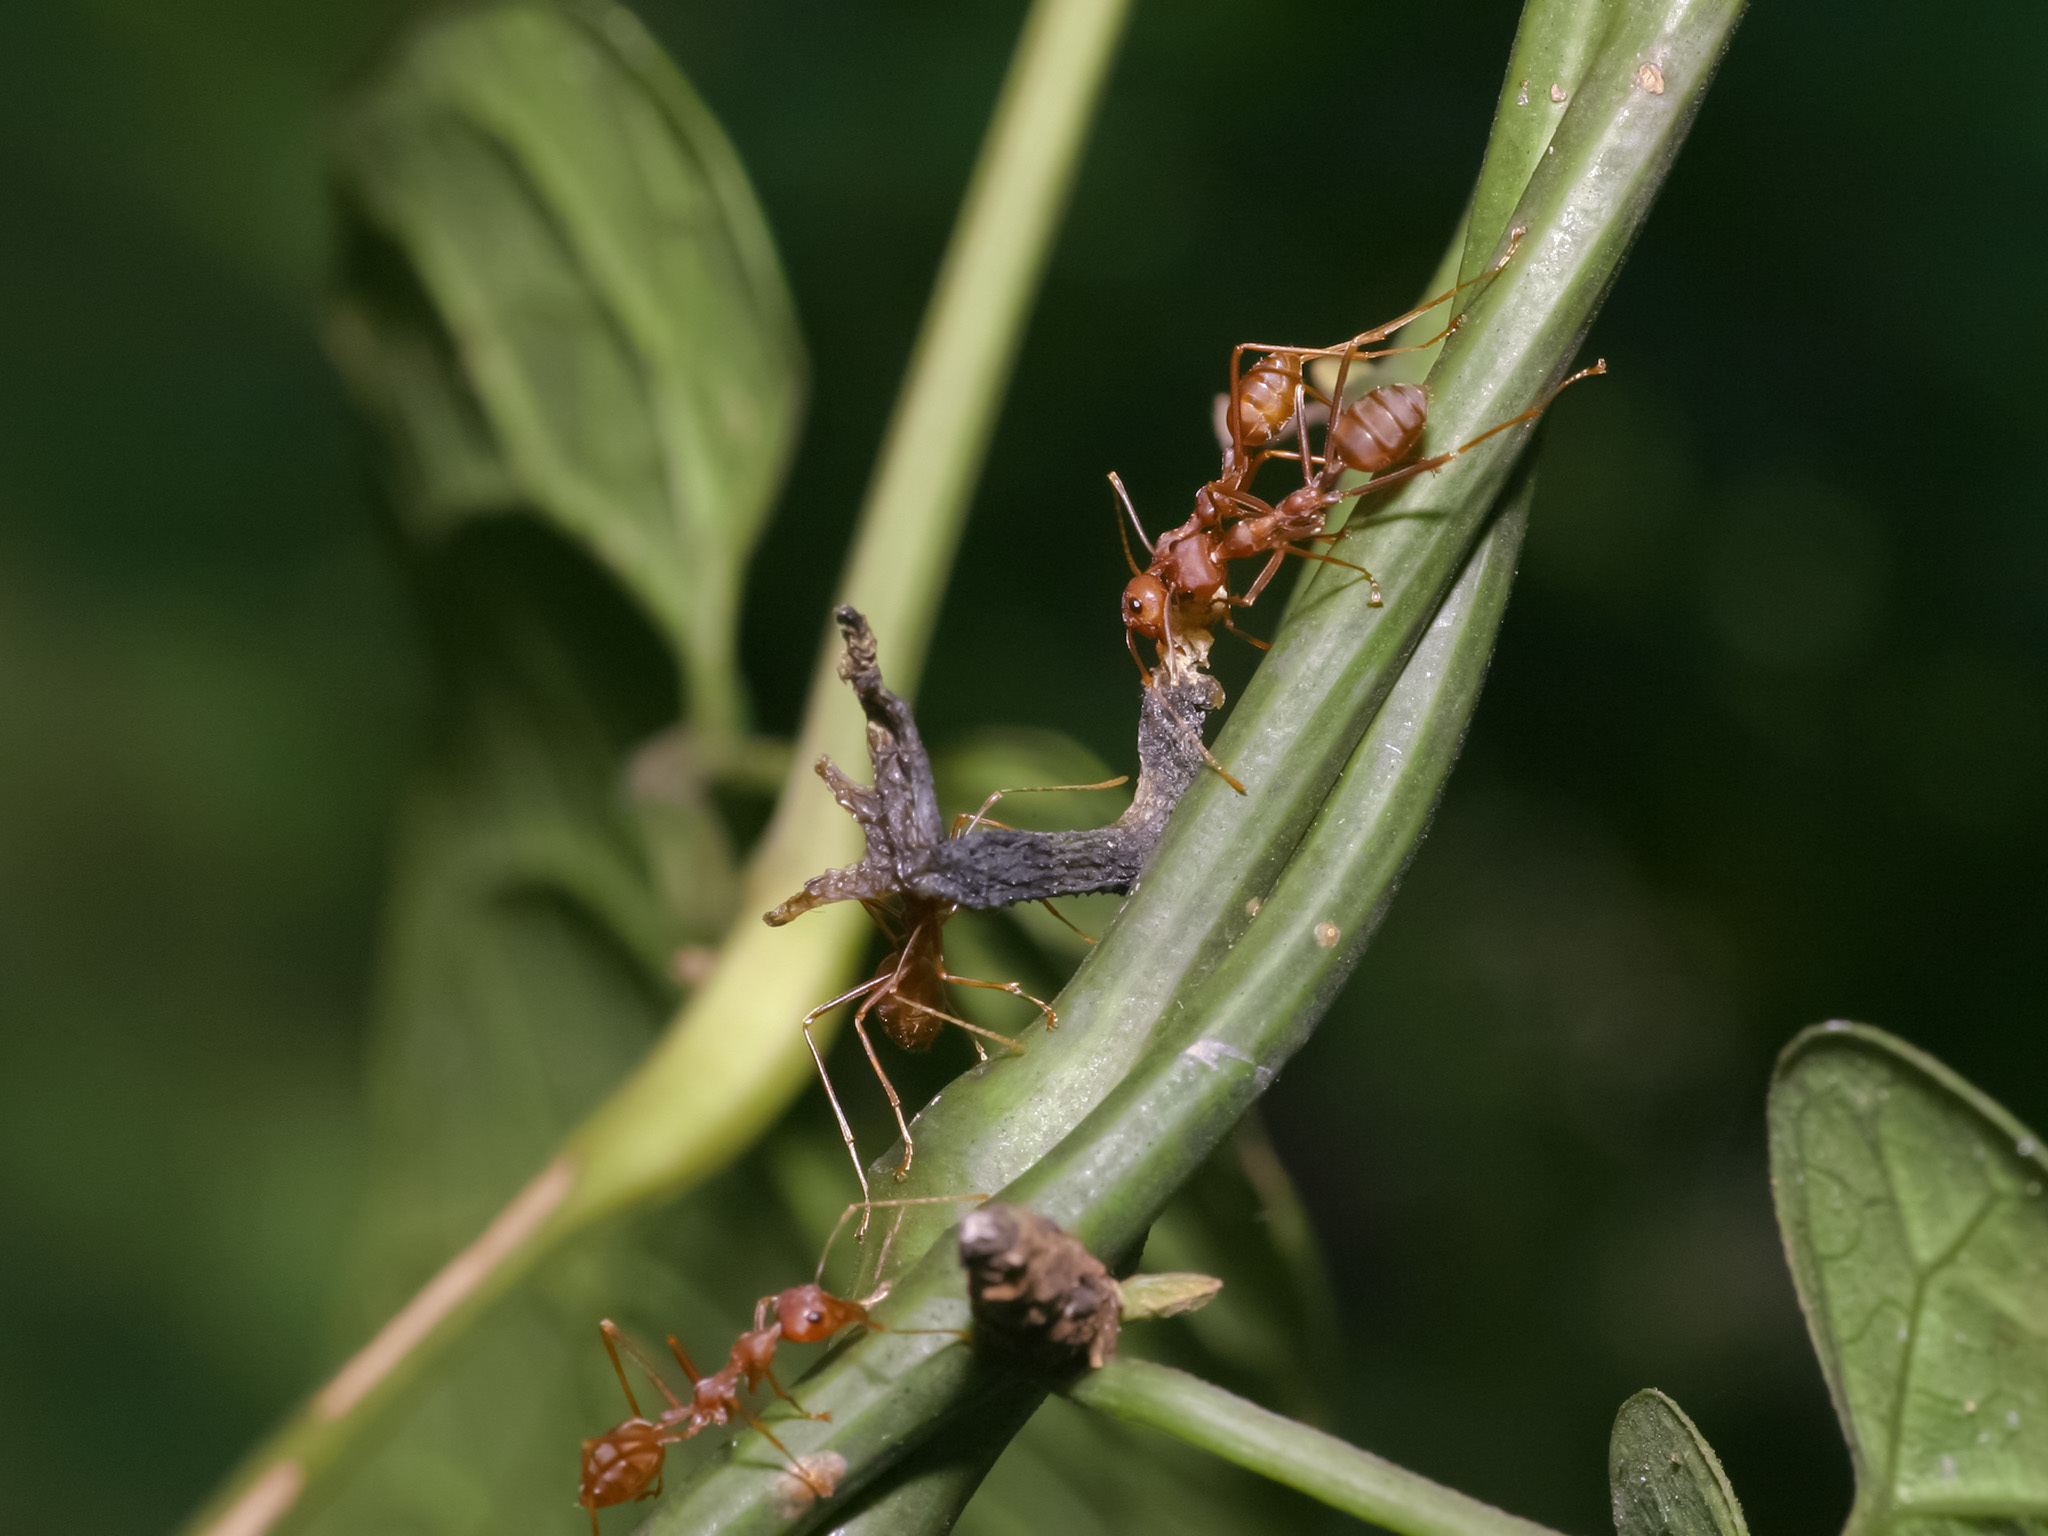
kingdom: Animalia
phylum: Arthropoda
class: Insecta
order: Hymenoptera
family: Formicidae
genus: Oecophylla
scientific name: Oecophylla smaragdina
